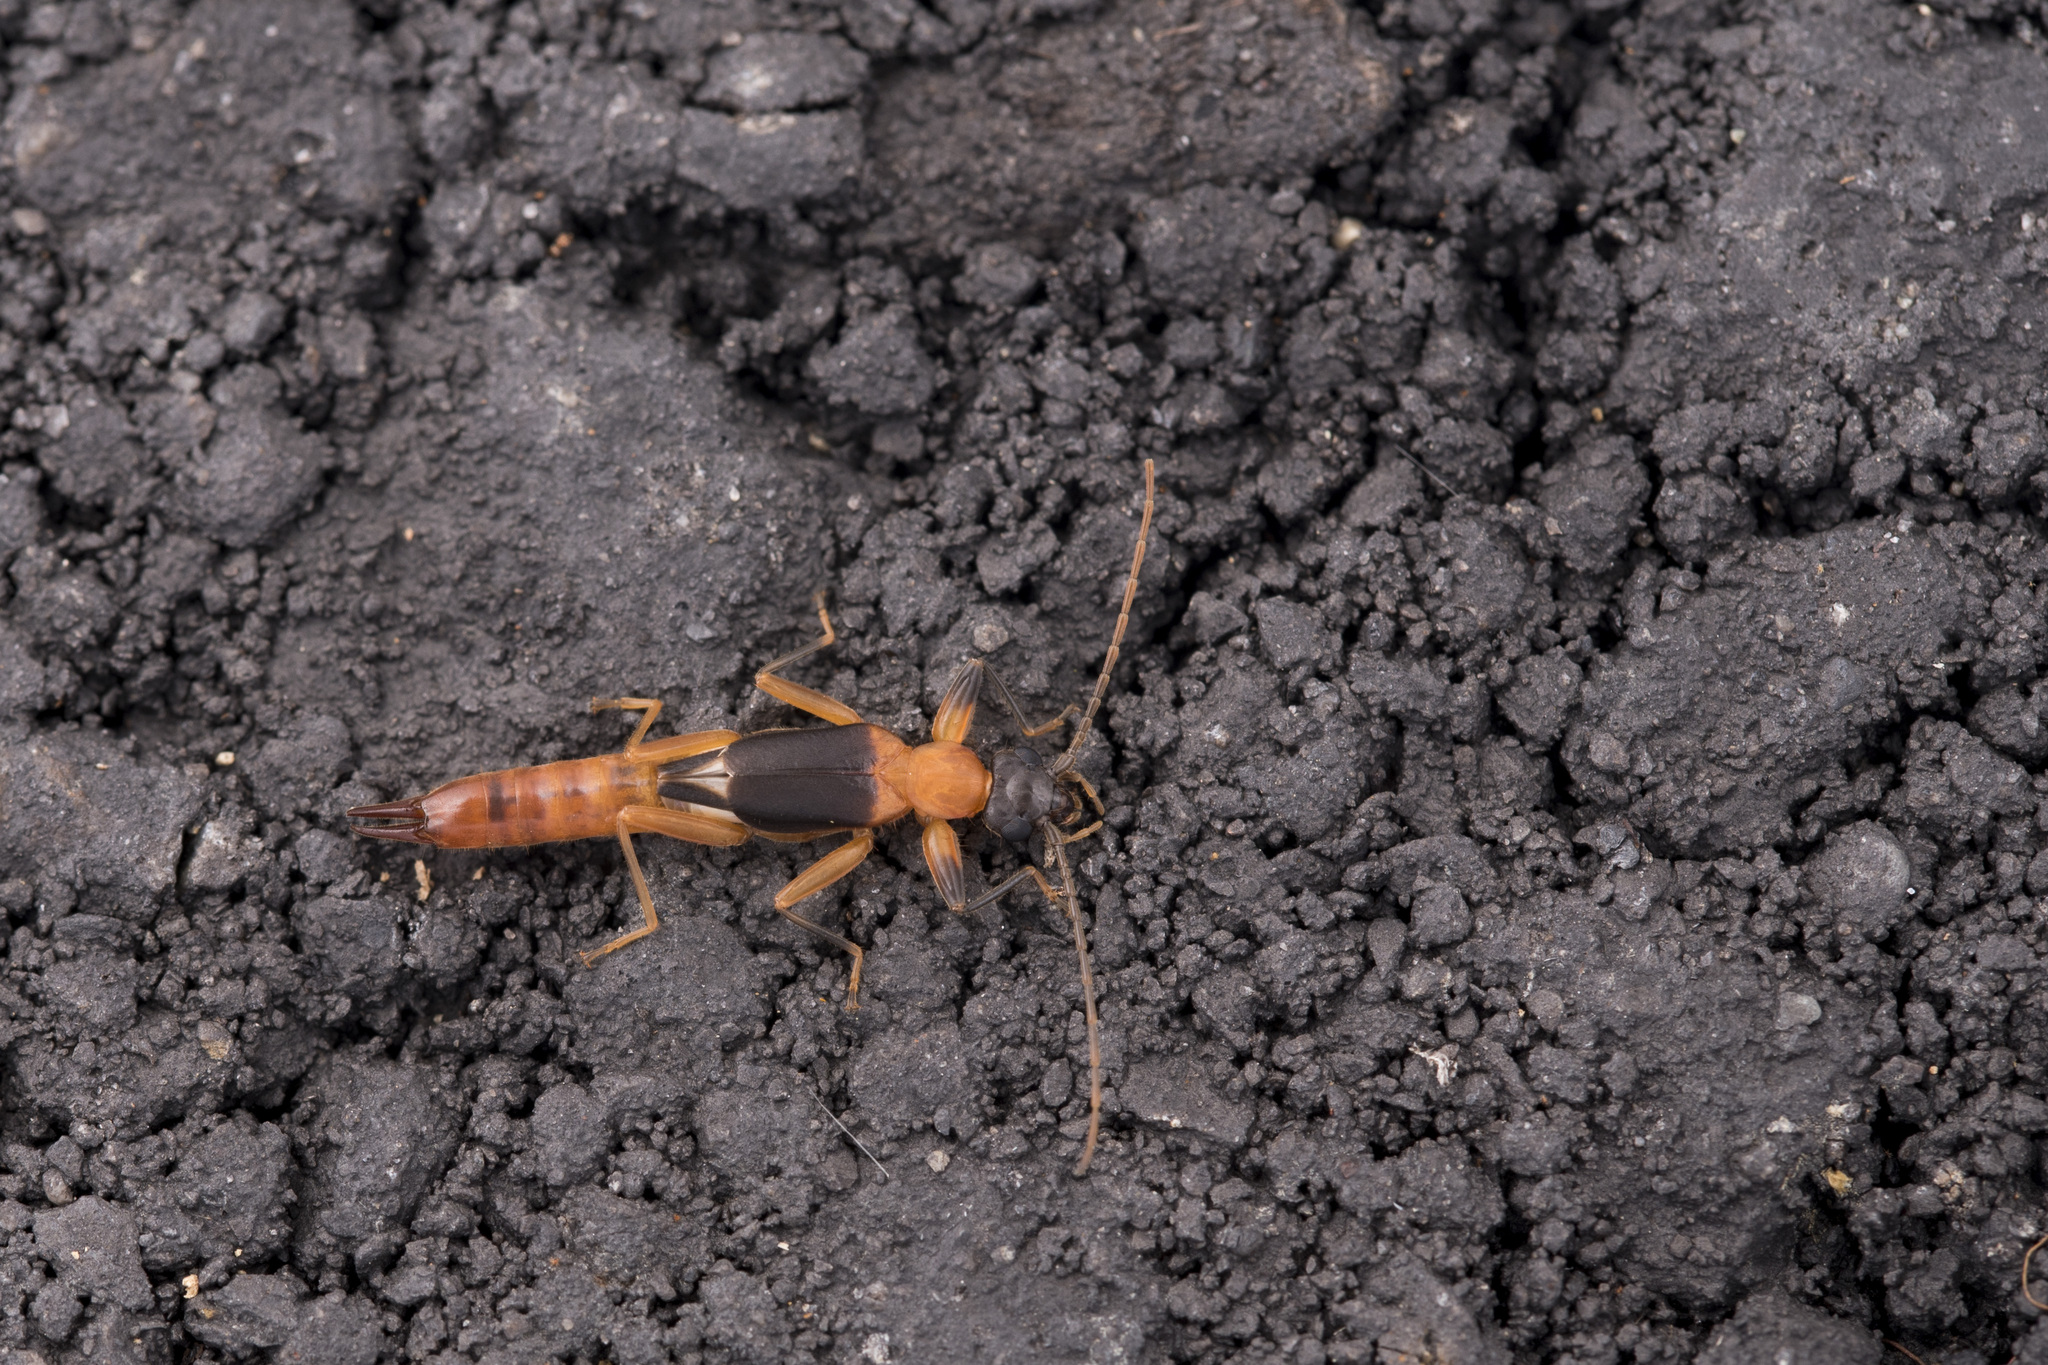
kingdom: Animalia
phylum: Arthropoda
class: Insecta
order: Dermaptera
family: Diplatyidae
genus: Diplatys
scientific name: Diplatys flavicollis
